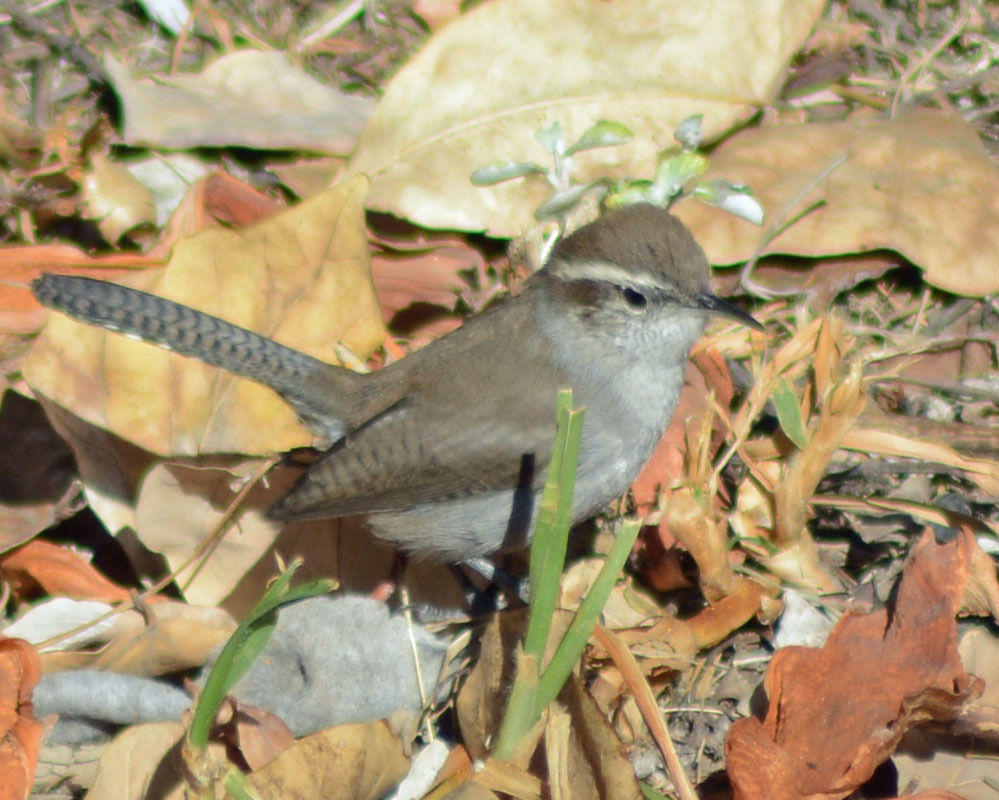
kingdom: Animalia
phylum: Chordata
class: Aves
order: Passeriformes
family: Troglodytidae
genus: Thryomanes
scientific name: Thryomanes bewickii
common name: Bewick's wren
